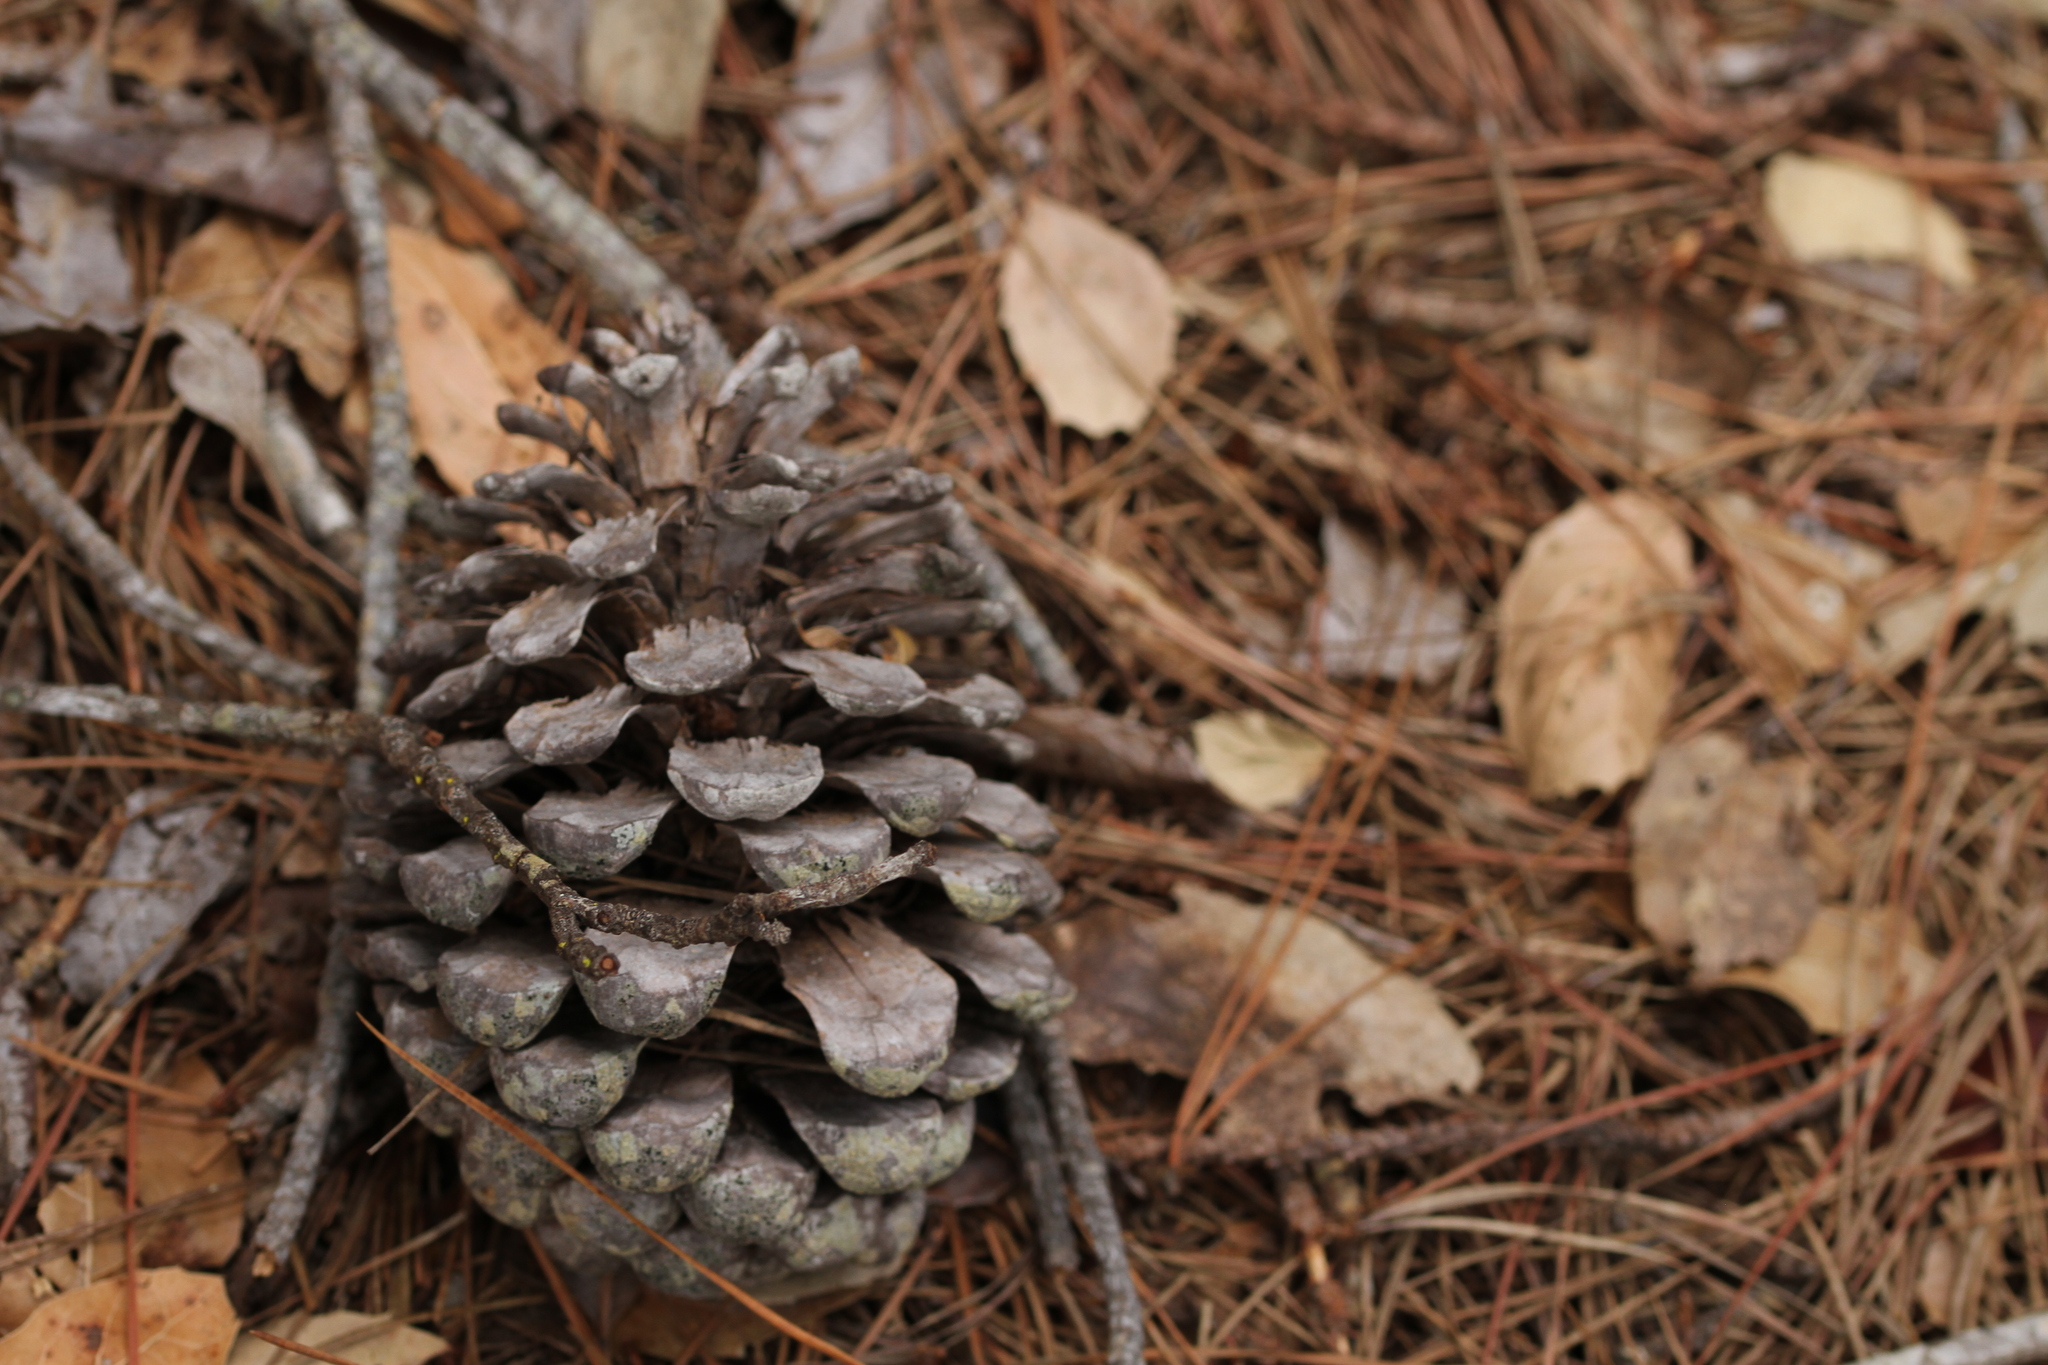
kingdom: Plantae
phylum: Tracheophyta
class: Pinopsida
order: Pinales
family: Pinaceae
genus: Pinus
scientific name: Pinus radiata
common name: Monterey pine
